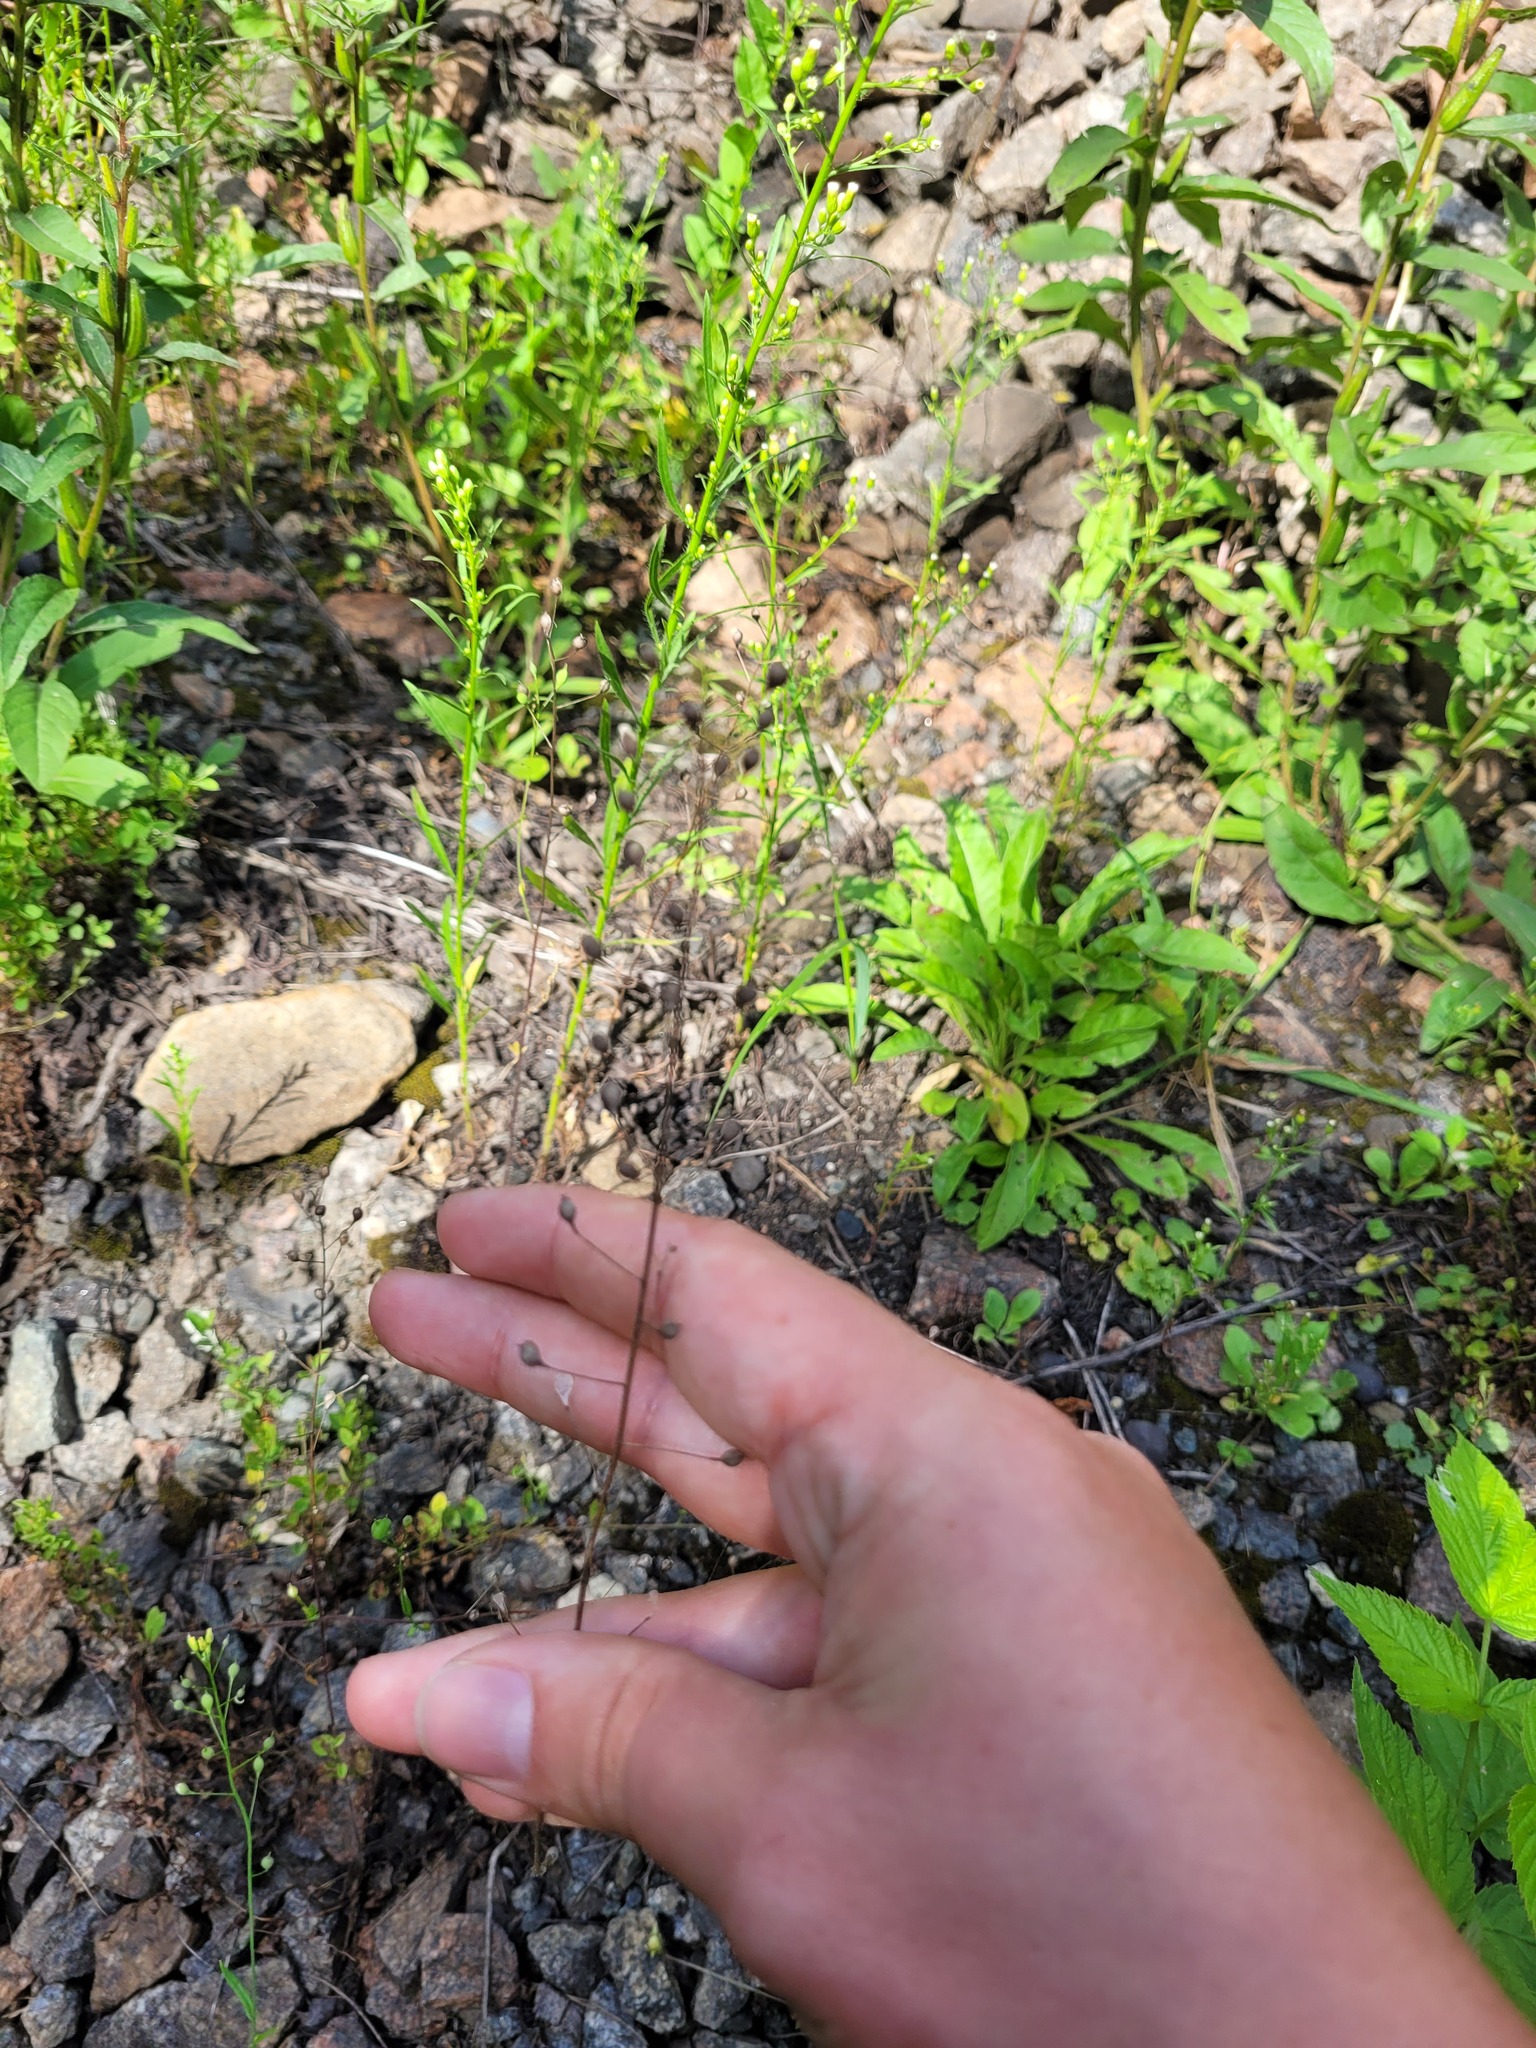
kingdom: Plantae
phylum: Tracheophyta
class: Magnoliopsida
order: Brassicales
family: Brassicaceae
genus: Camelina
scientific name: Camelina microcarpa
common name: Lesser gold-of-pleasure
